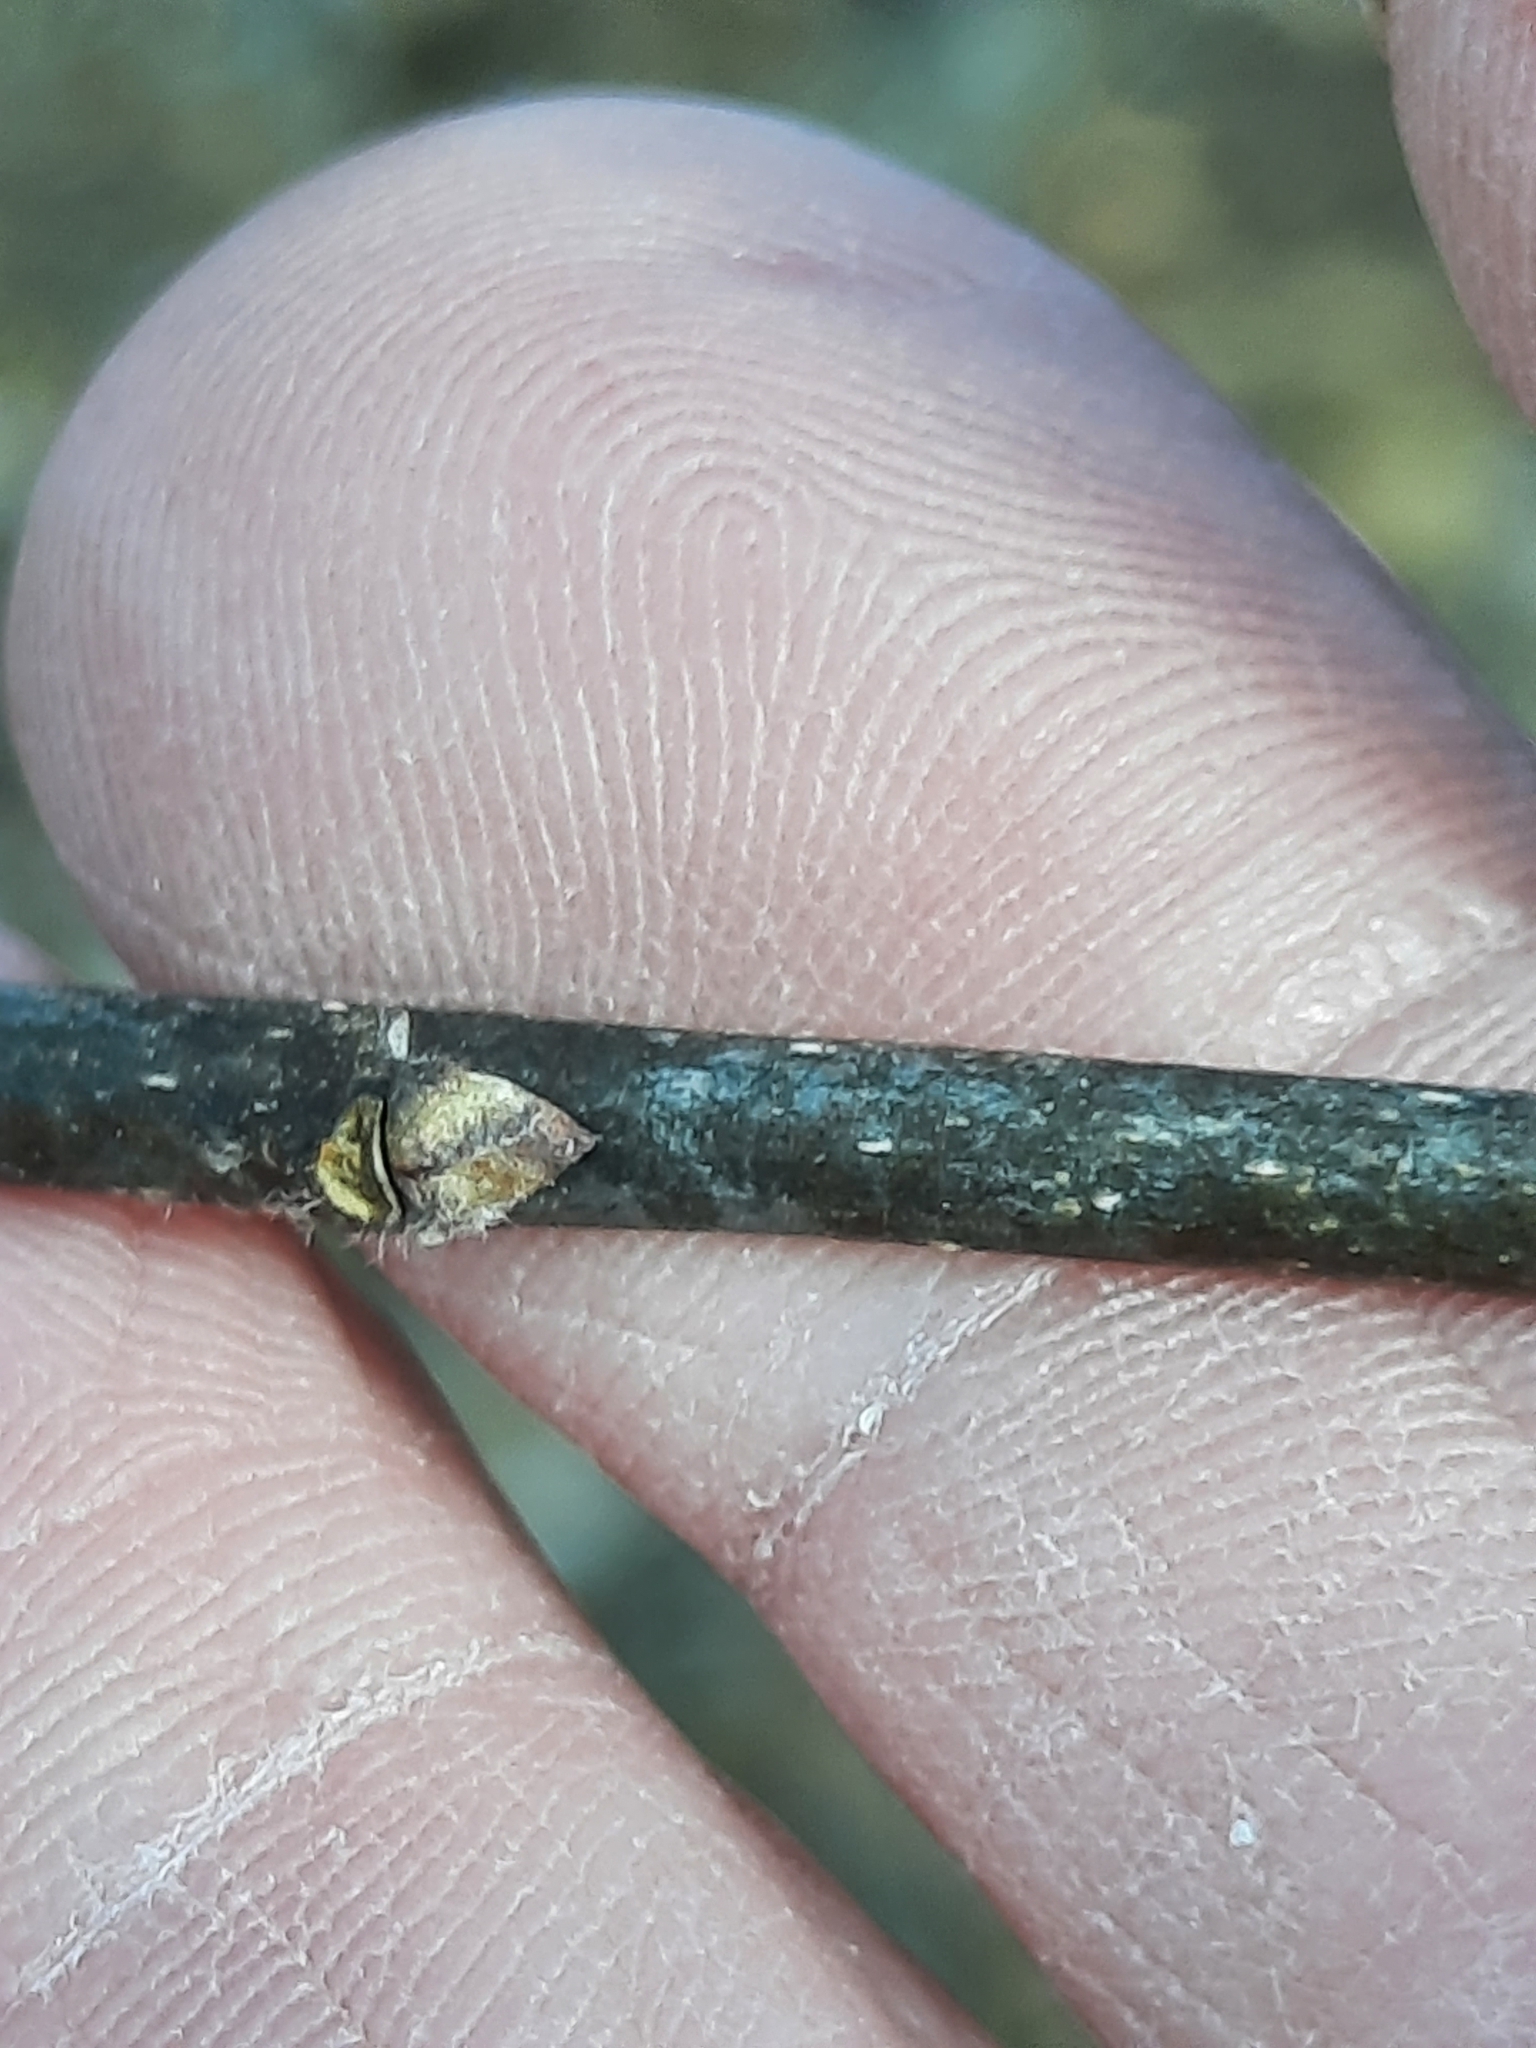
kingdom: Plantae
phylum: Tracheophyta
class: Magnoliopsida
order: Rosales
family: Cannabaceae
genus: Celtis
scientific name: Celtis occidentalis
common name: Common hackberry
